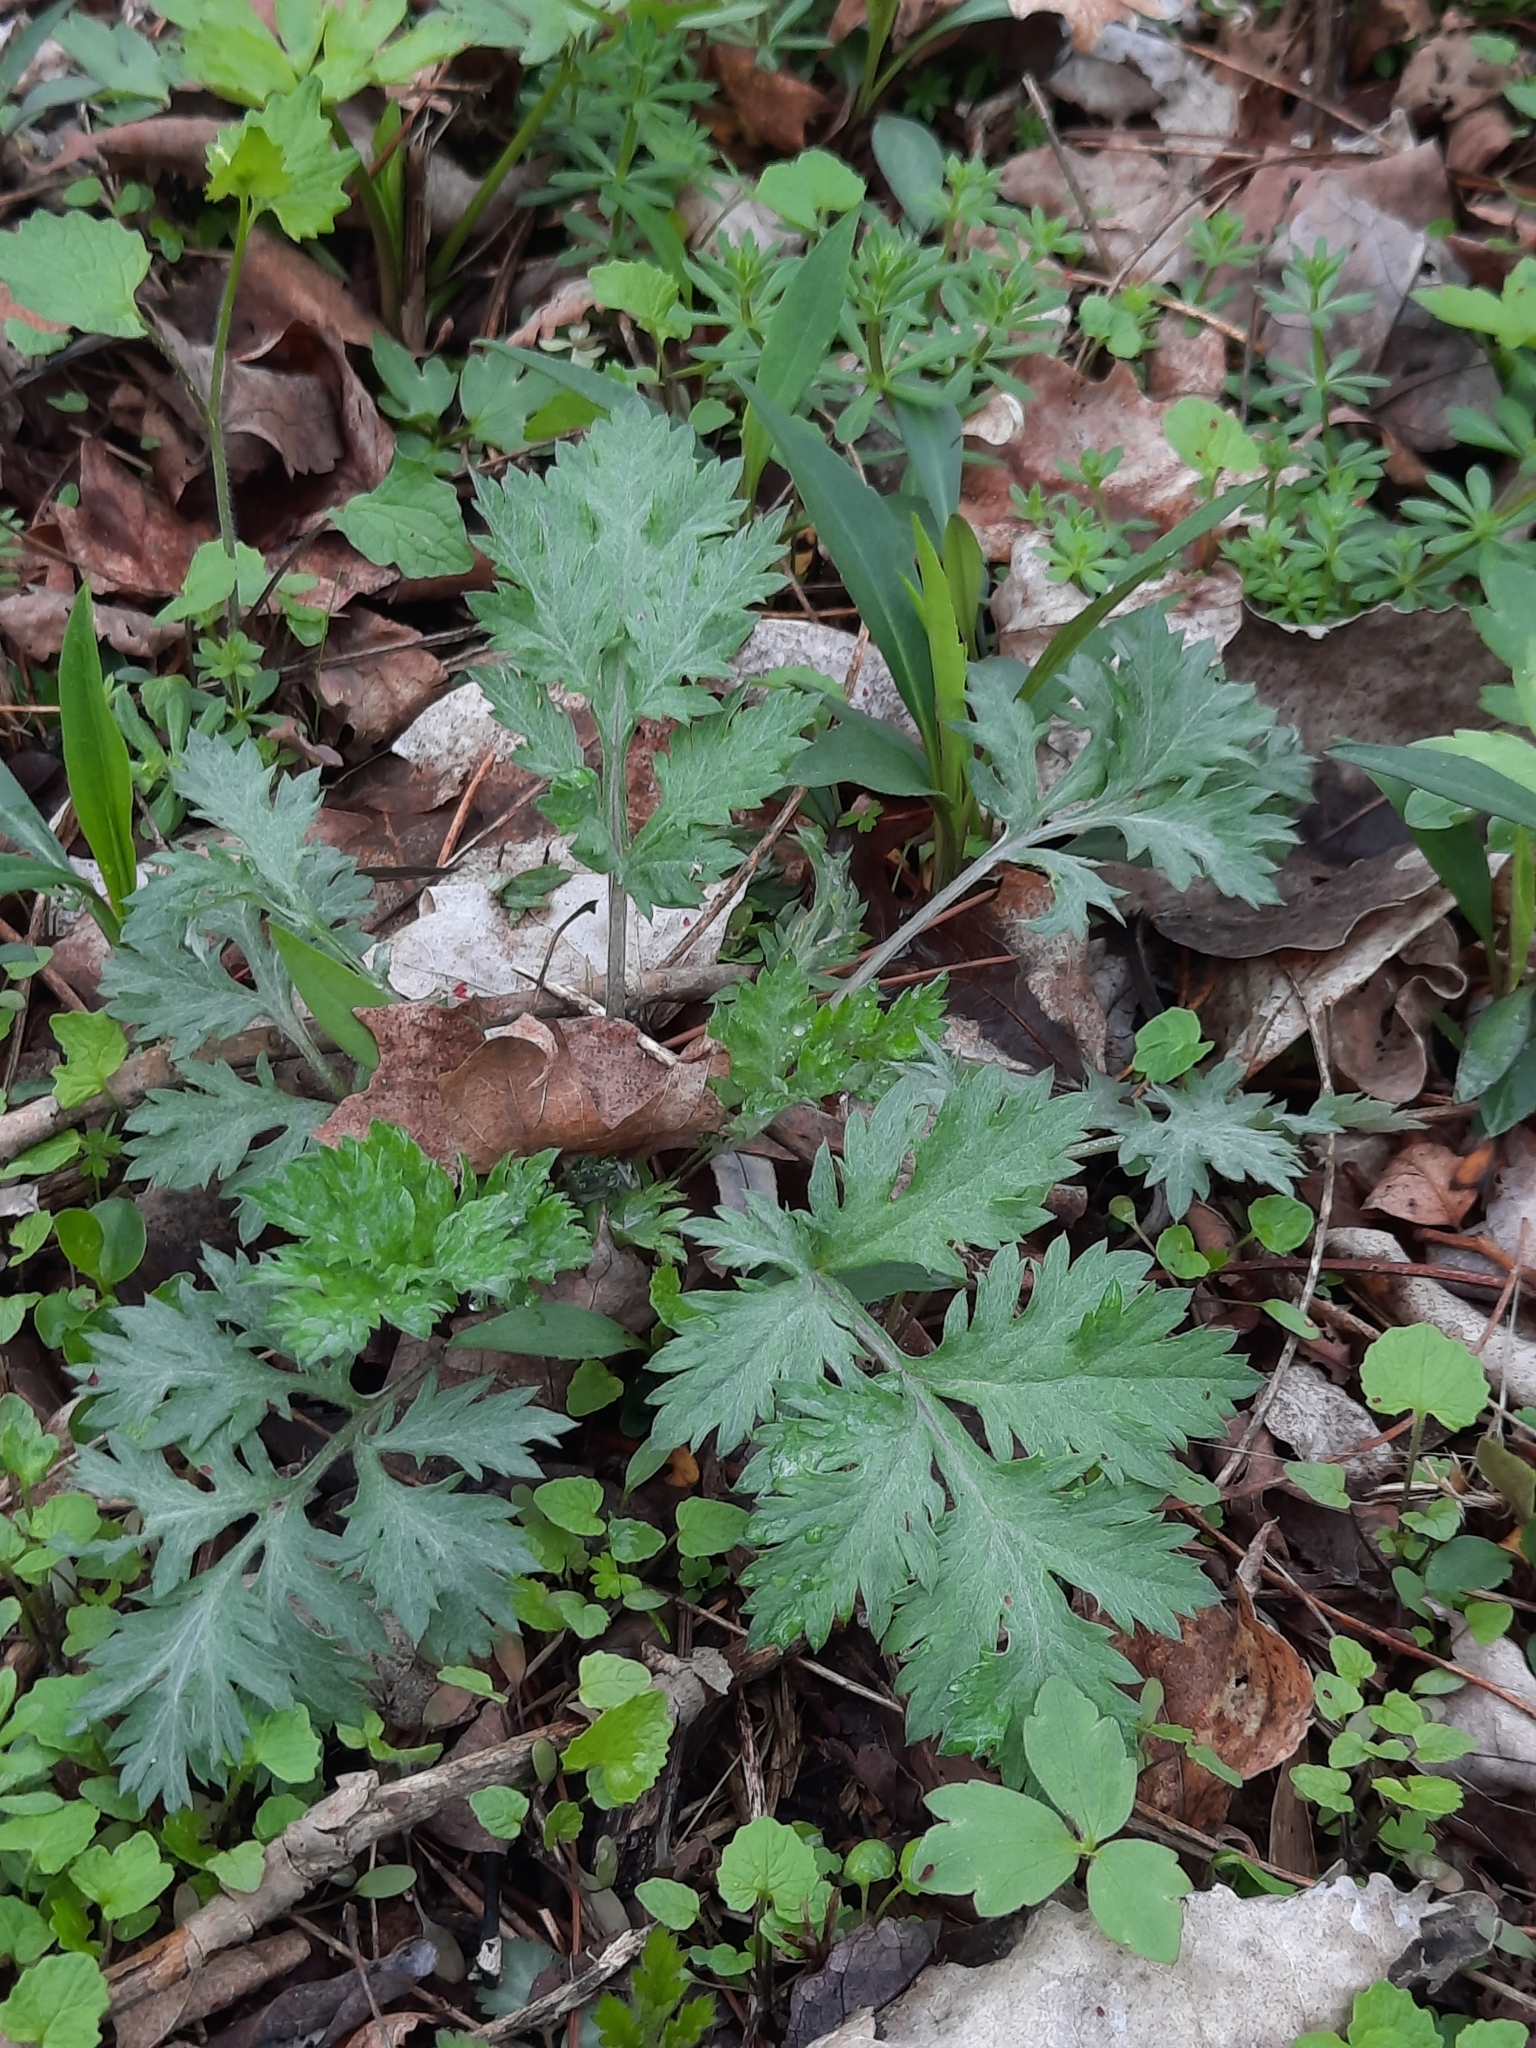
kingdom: Plantae
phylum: Tracheophyta
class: Magnoliopsida
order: Asterales
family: Asteraceae
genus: Artemisia
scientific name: Artemisia vulgaris
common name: Mugwort
